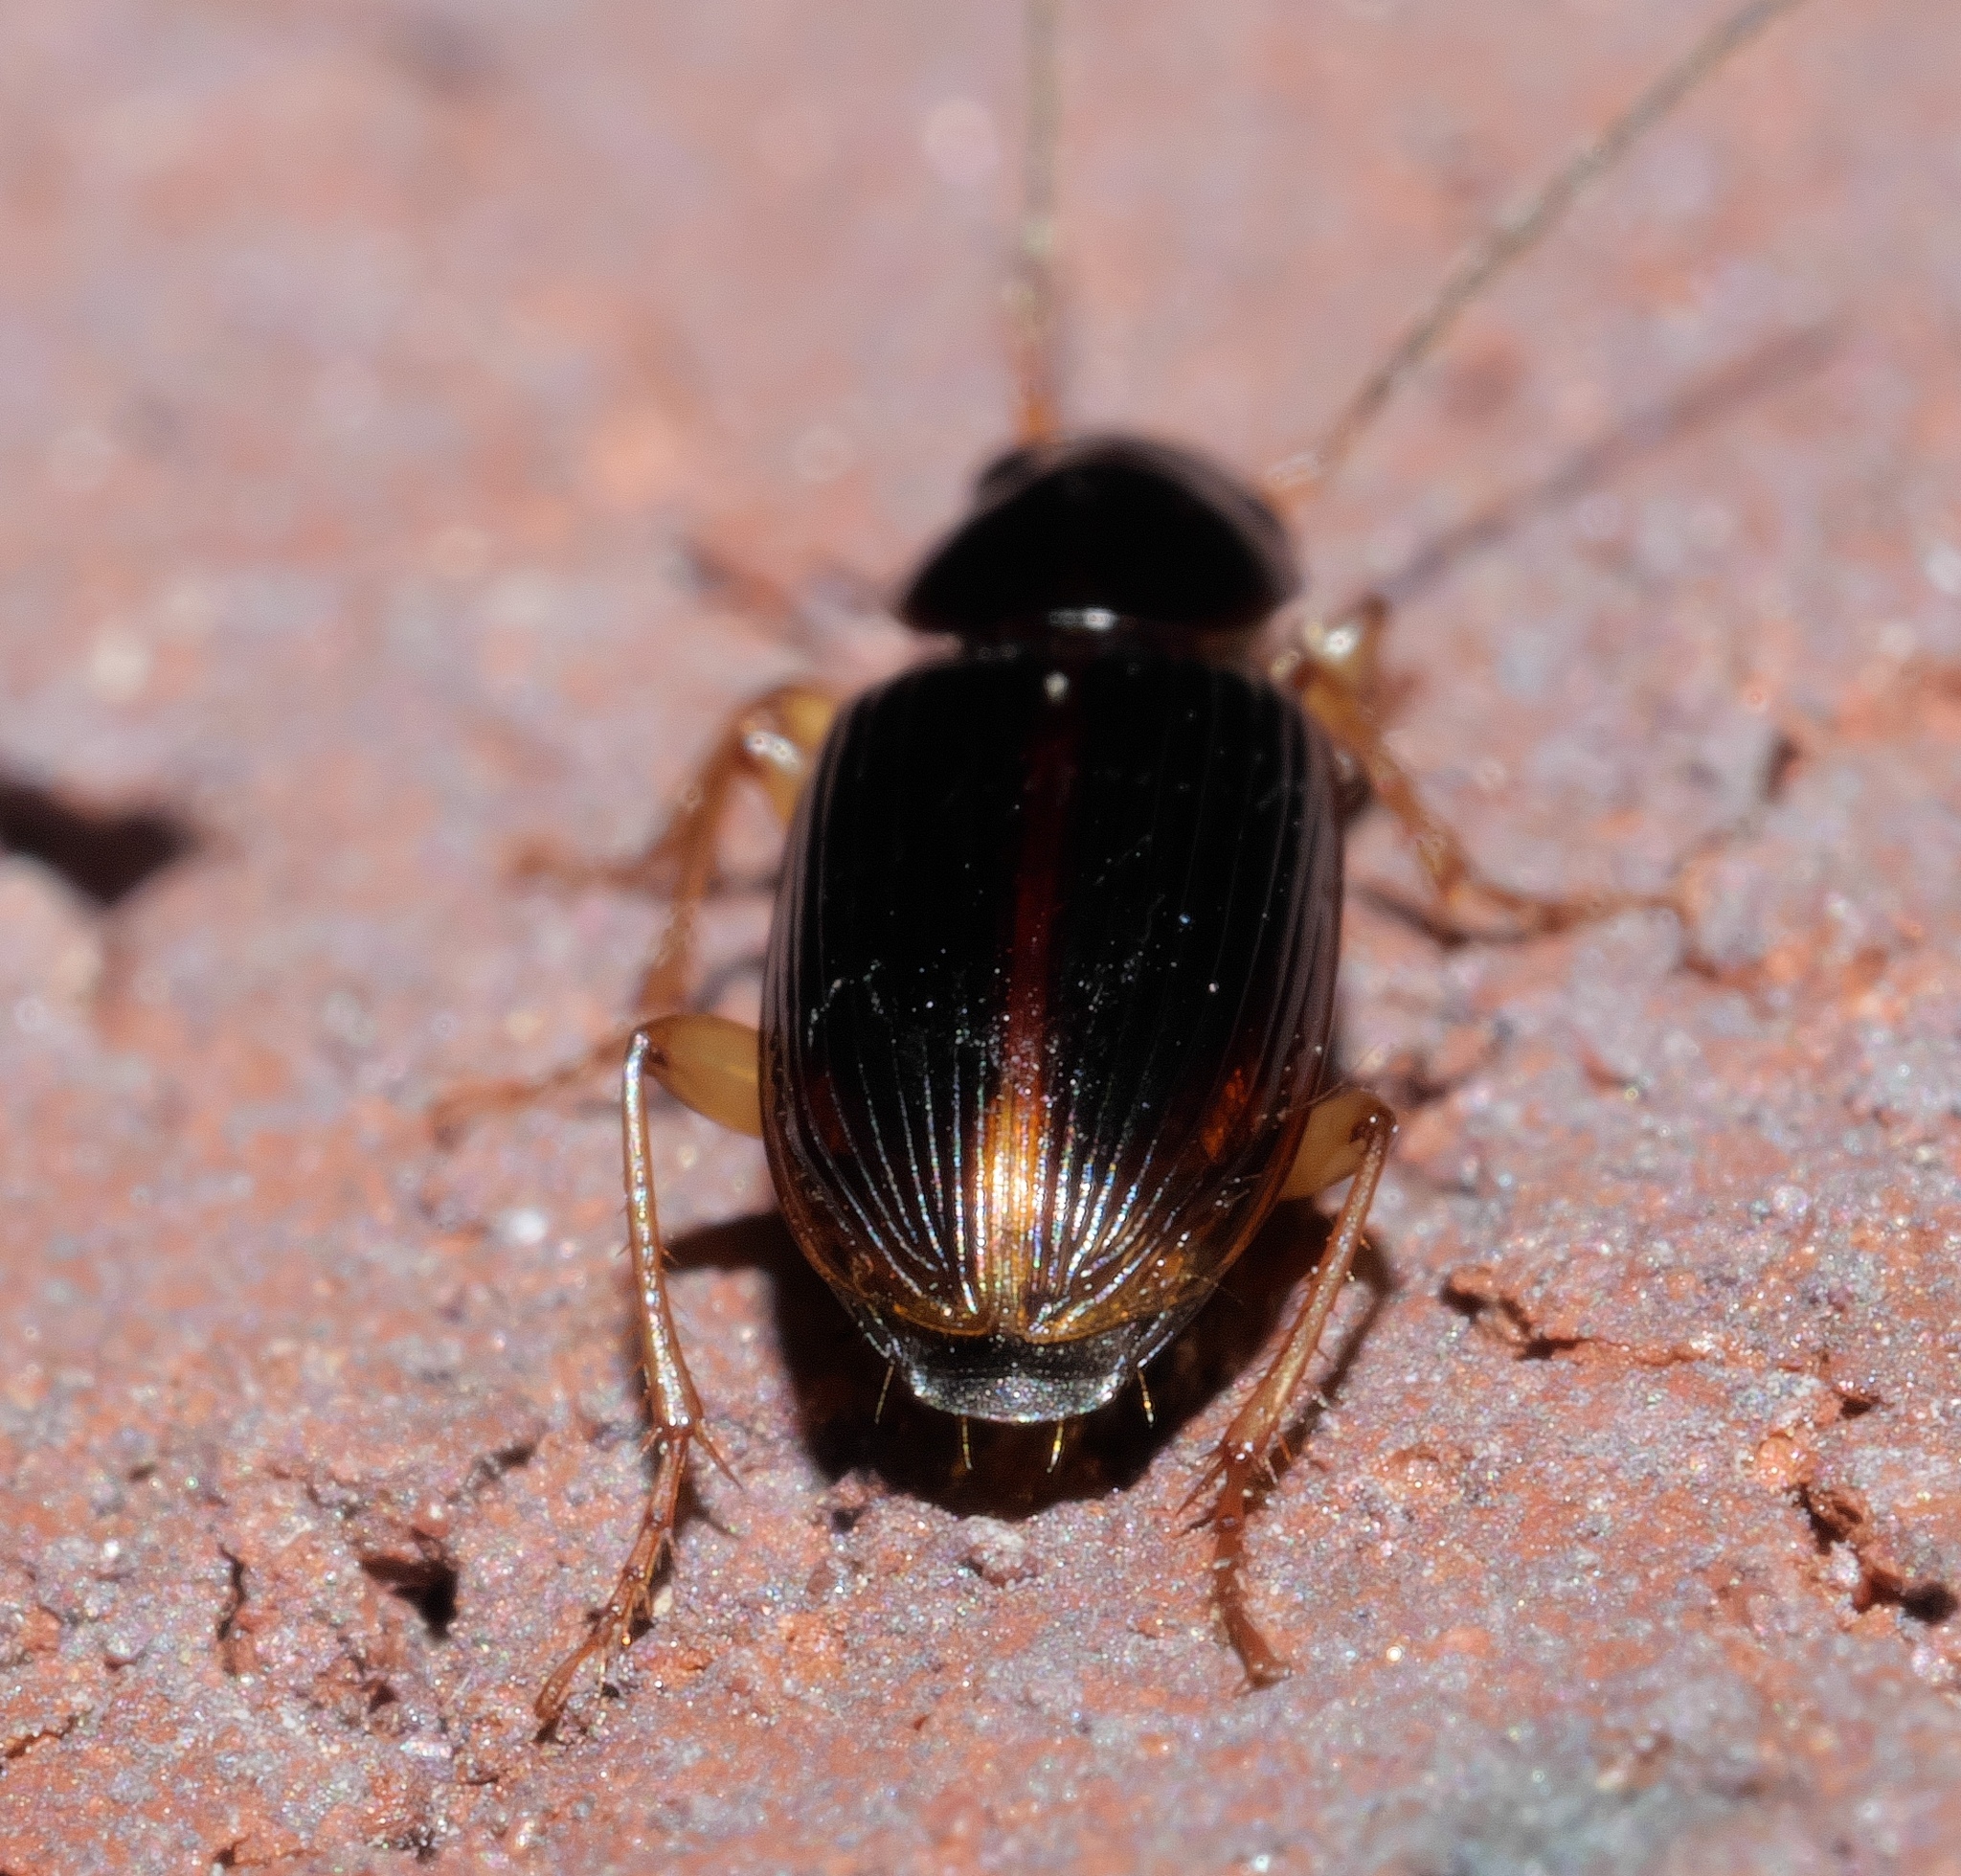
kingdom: Animalia
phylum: Arthropoda
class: Insecta
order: Coleoptera
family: Carabidae
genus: Stenolophus
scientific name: Stenolophus ochropezus
